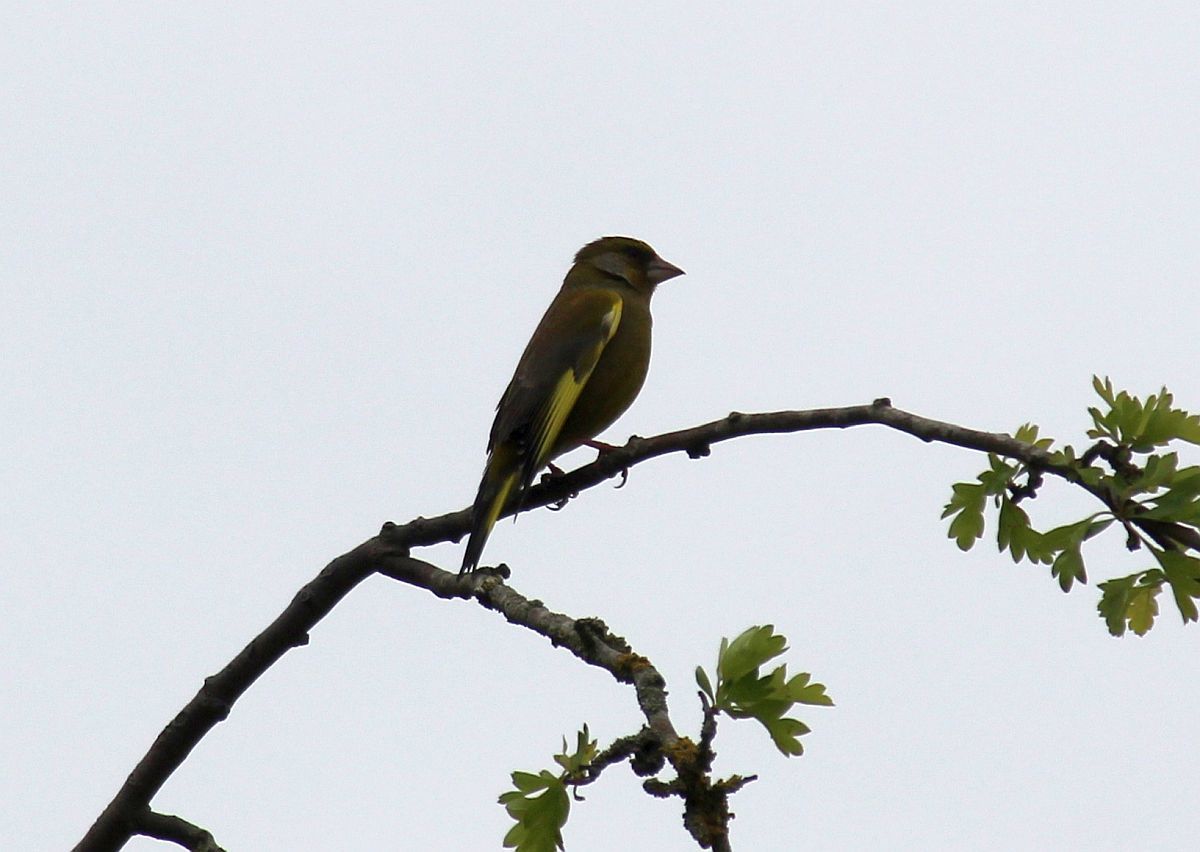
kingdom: Plantae
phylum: Tracheophyta
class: Liliopsida
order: Poales
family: Poaceae
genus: Chloris
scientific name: Chloris chloris
